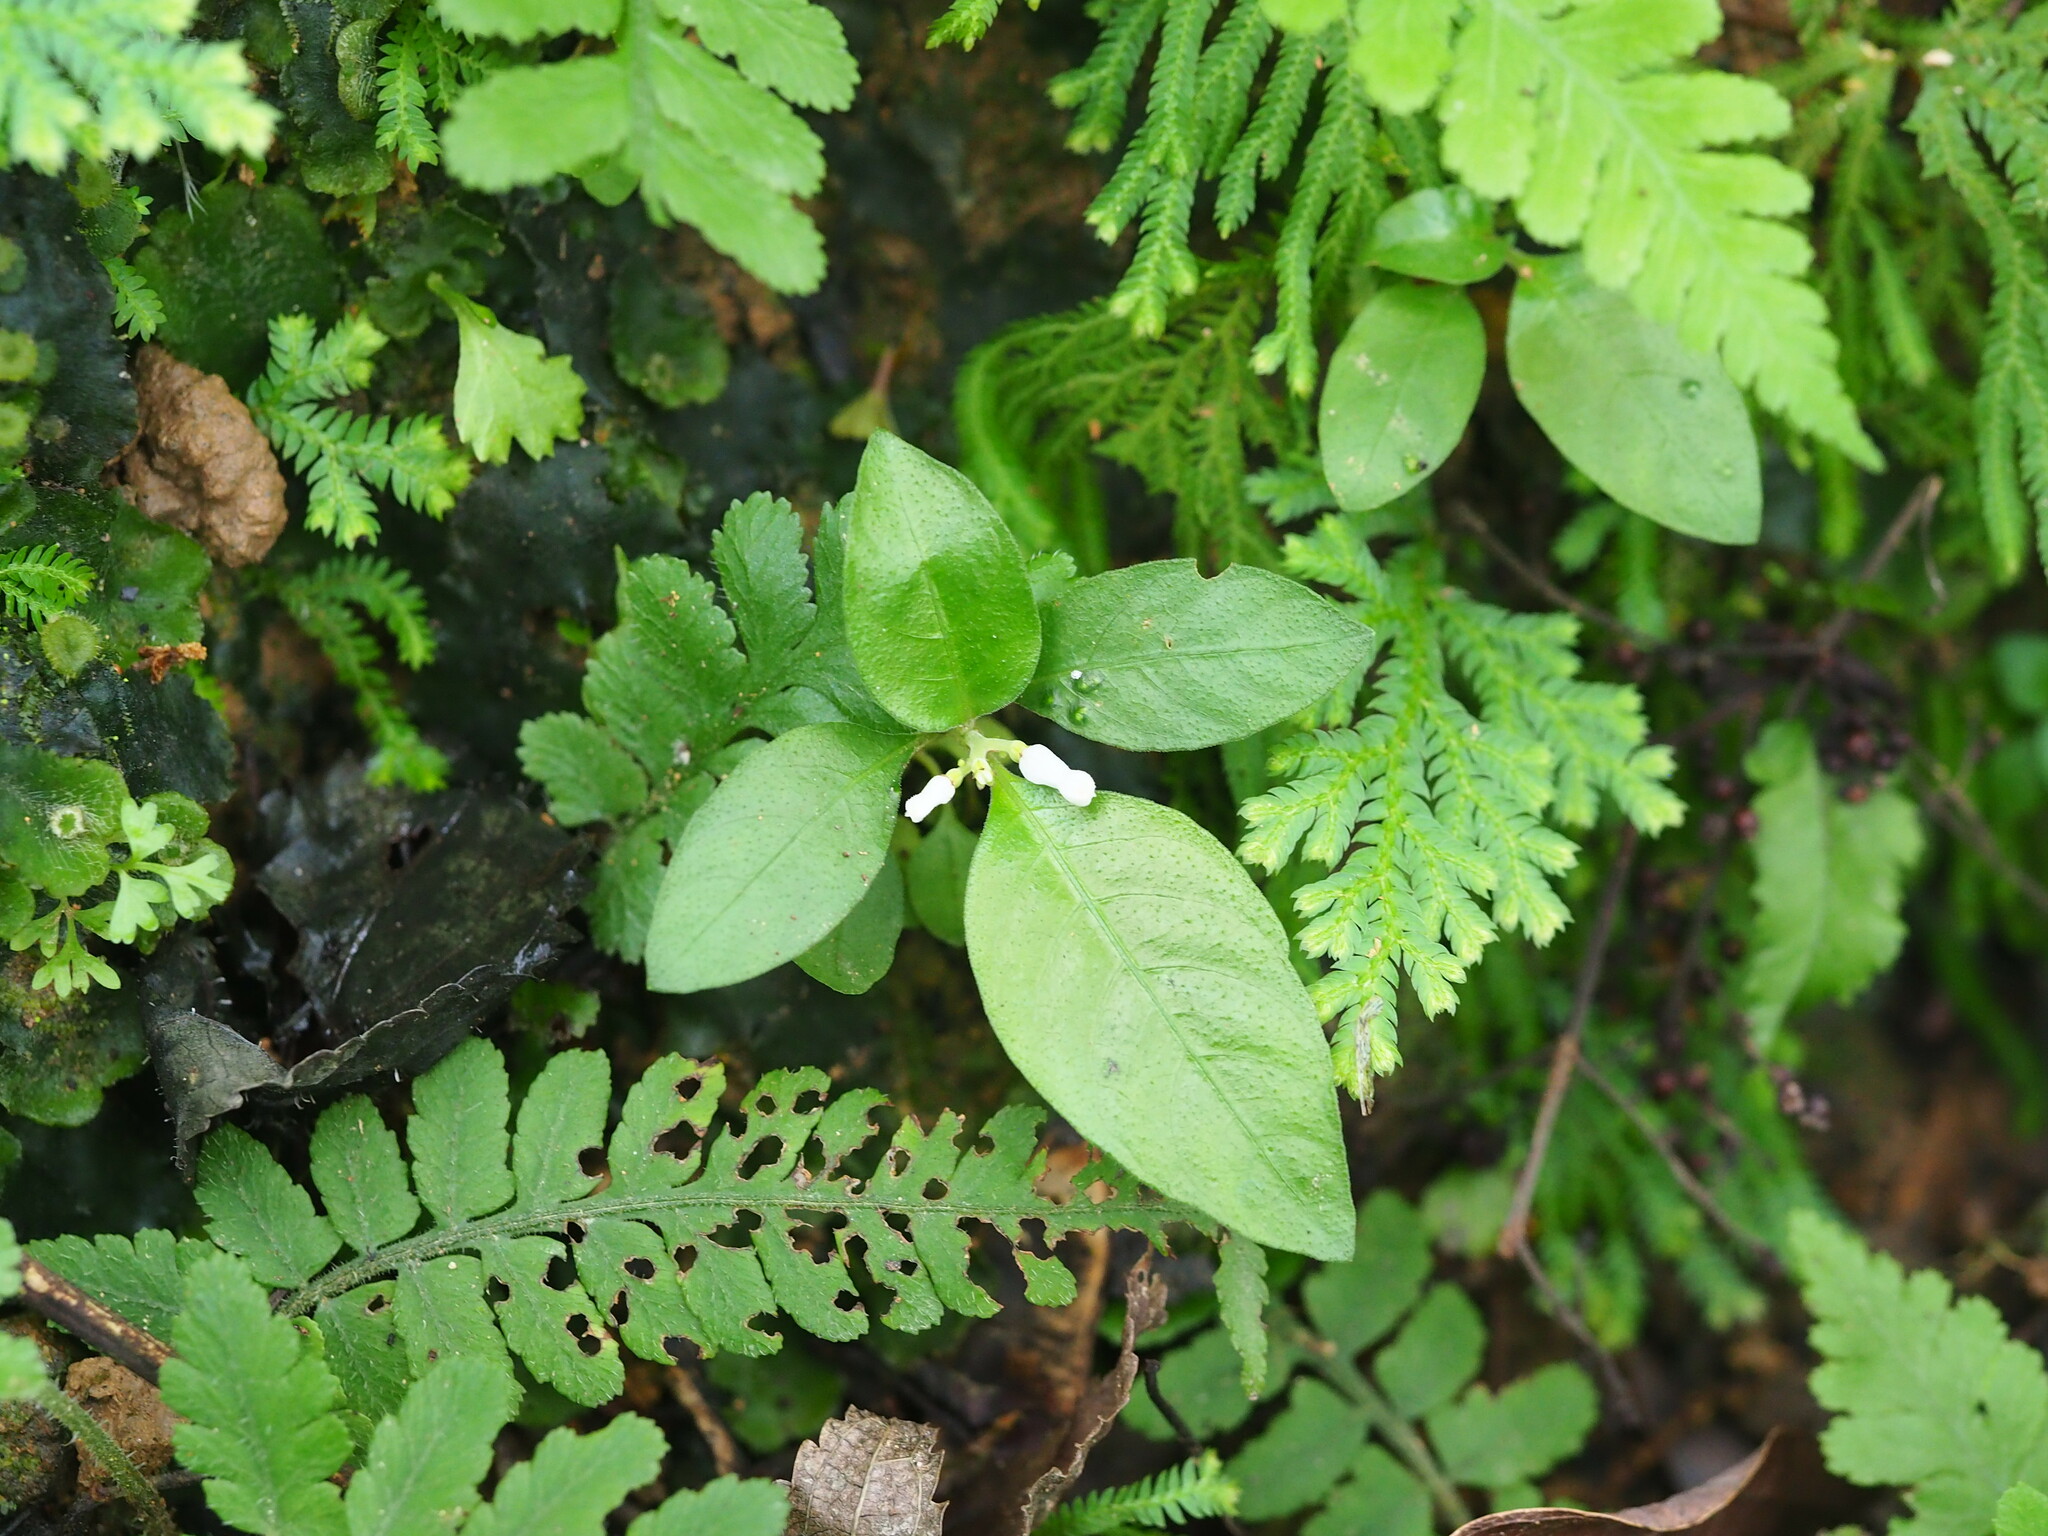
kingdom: Plantae
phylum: Tracheophyta
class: Magnoliopsida
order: Gentianales
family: Rubiaceae
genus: Ophiorrhiza
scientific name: Ophiorrhiza pumila
